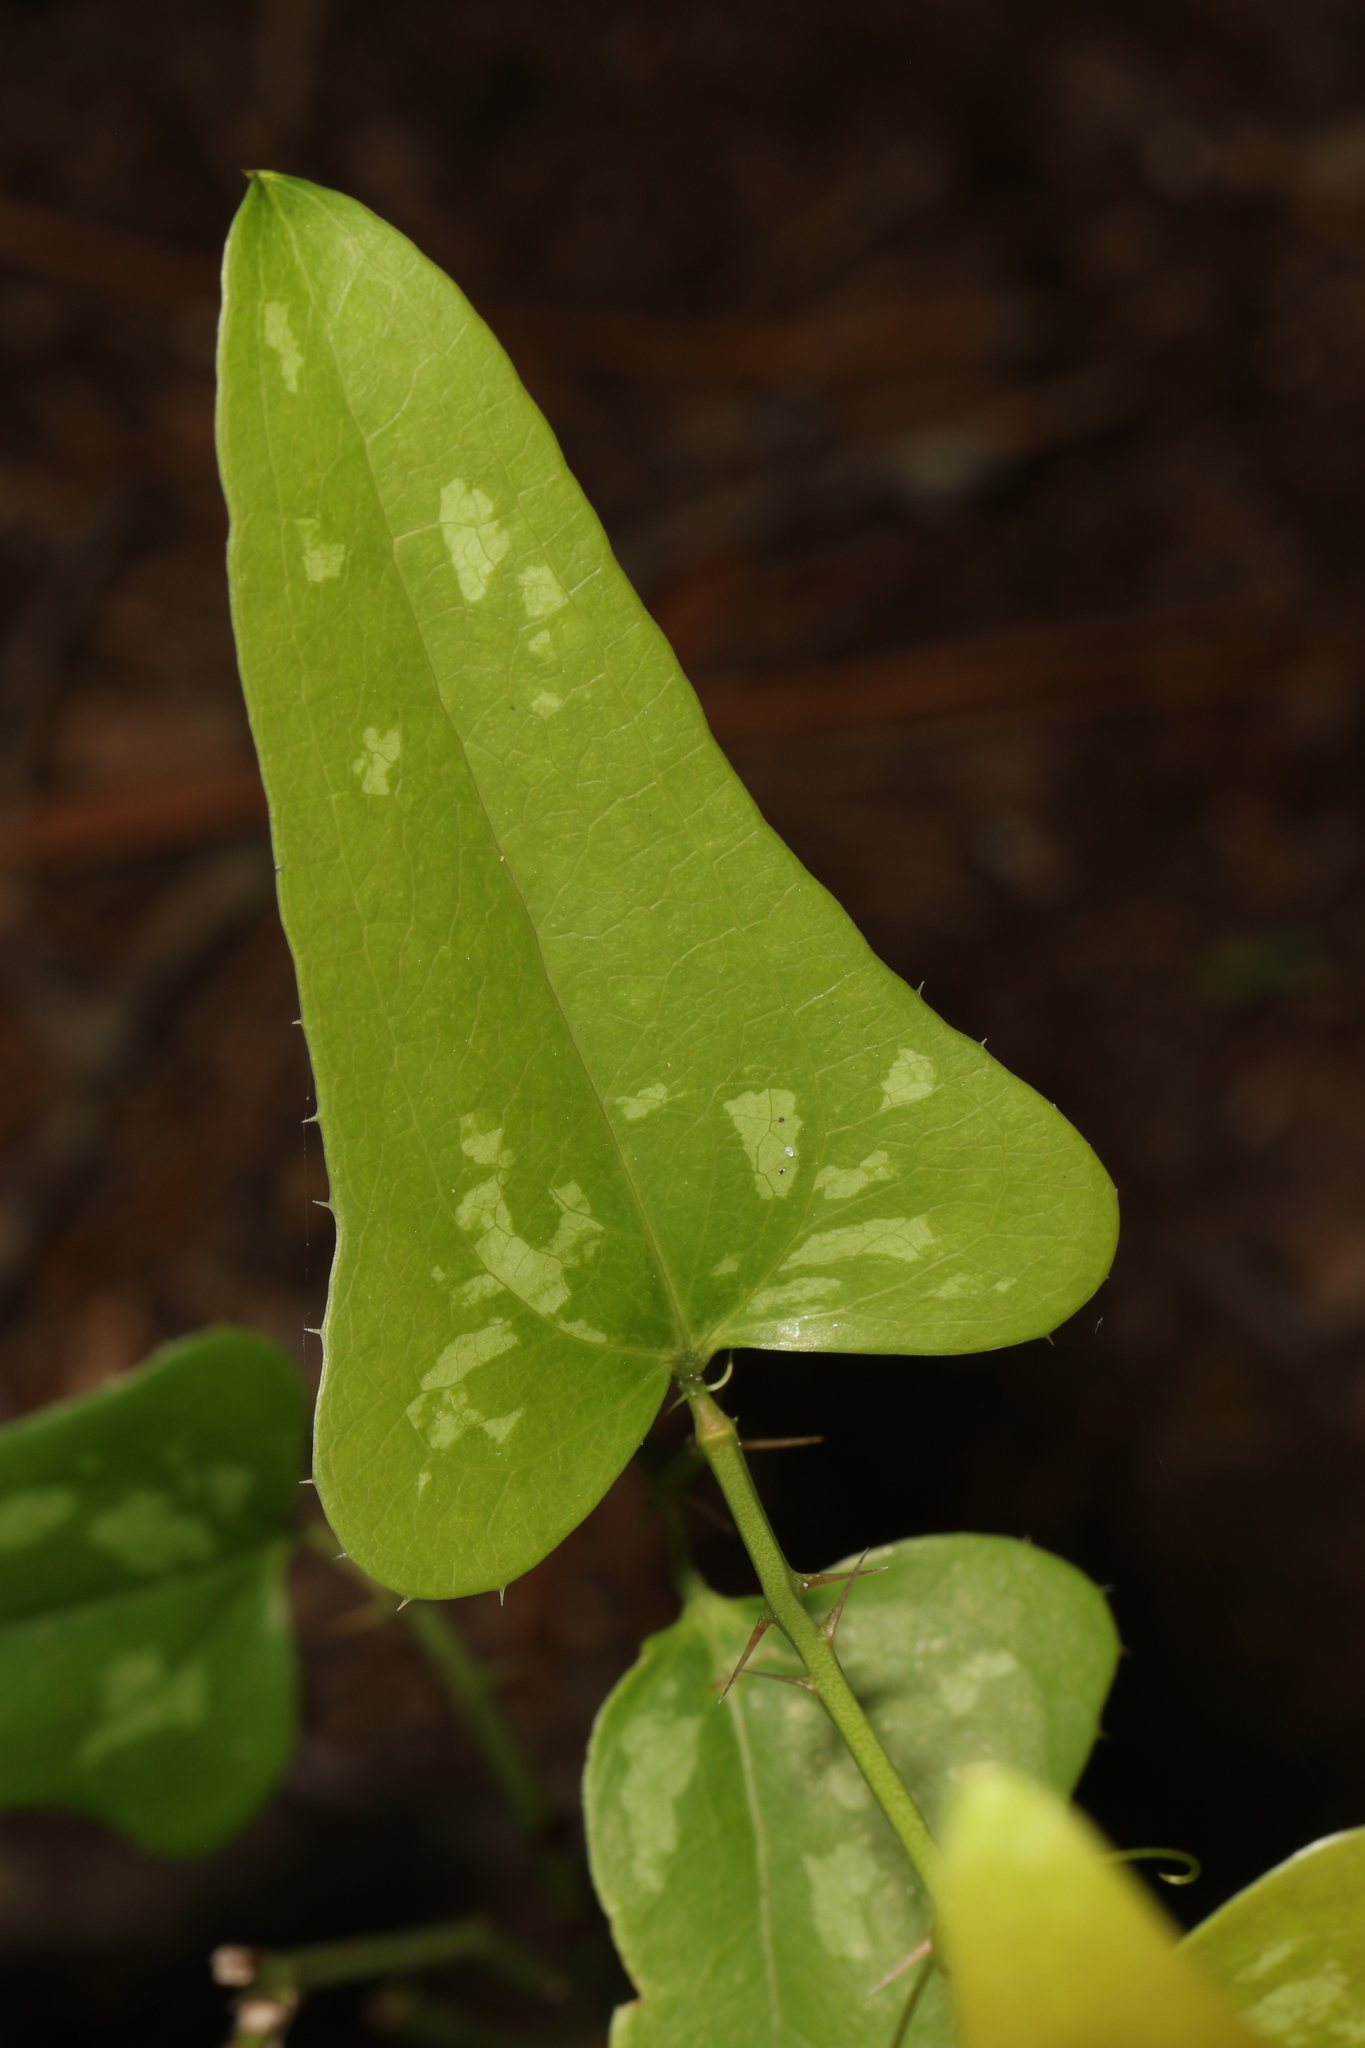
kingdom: Plantae
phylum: Tracheophyta
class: Liliopsida
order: Liliales
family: Smilacaceae
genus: Smilax
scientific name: Smilax bona-nox
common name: Catbrier
